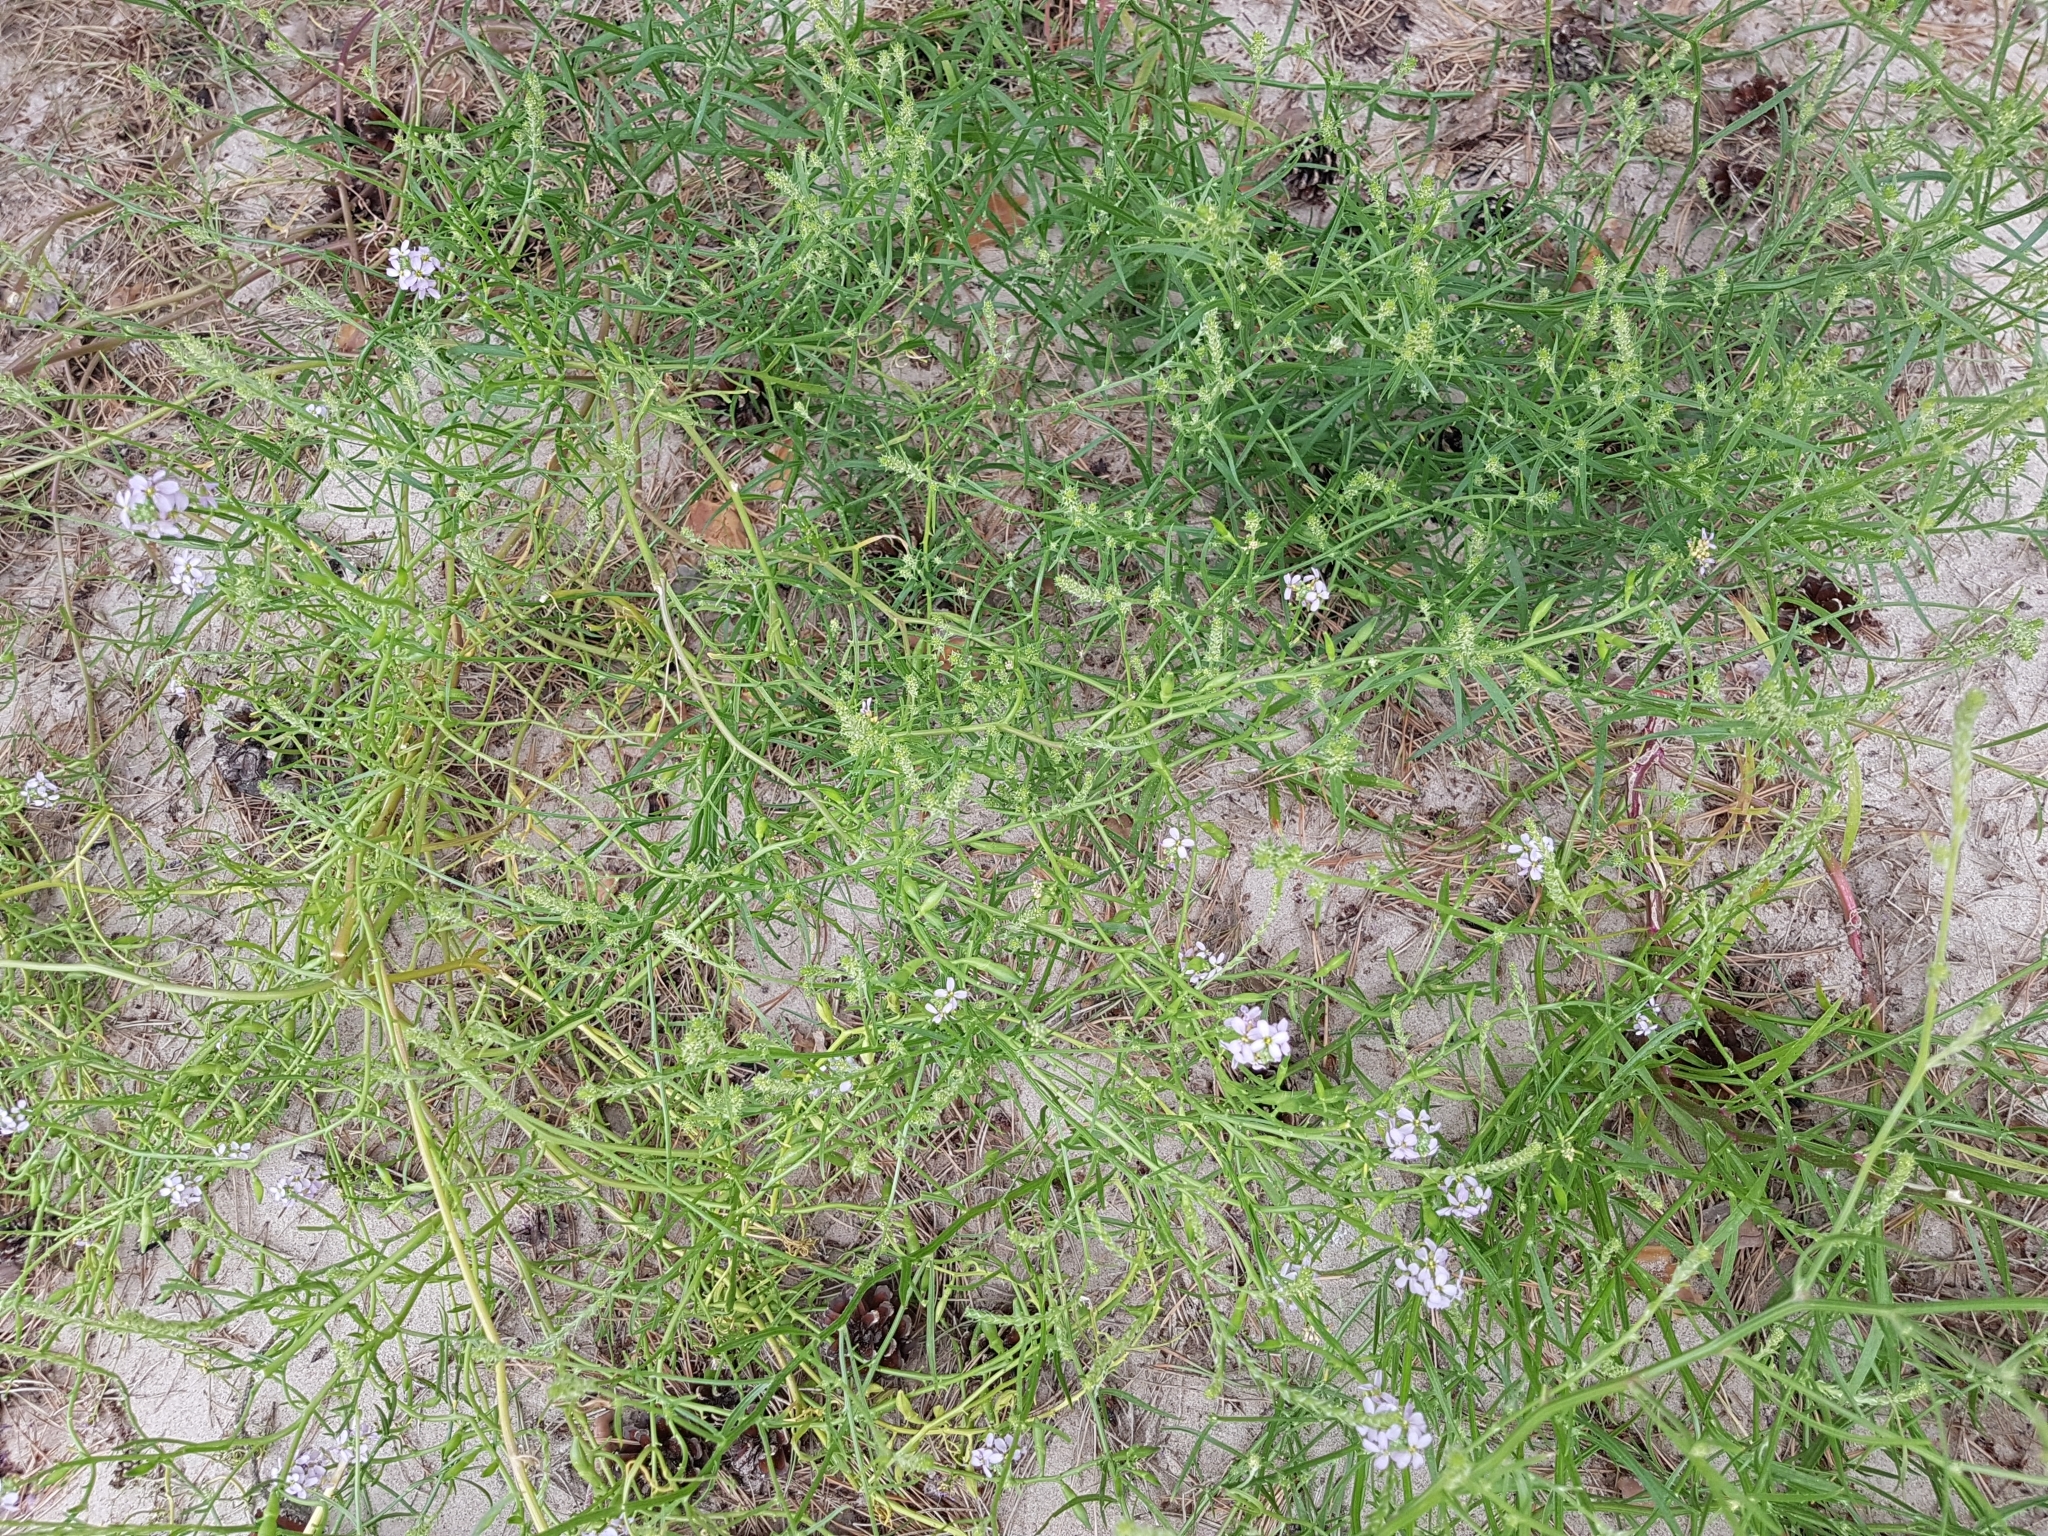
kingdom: Plantae
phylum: Tracheophyta
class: Magnoliopsida
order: Brassicales
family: Brassicaceae
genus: Cakile
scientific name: Cakile maritima
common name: Sea rocket
